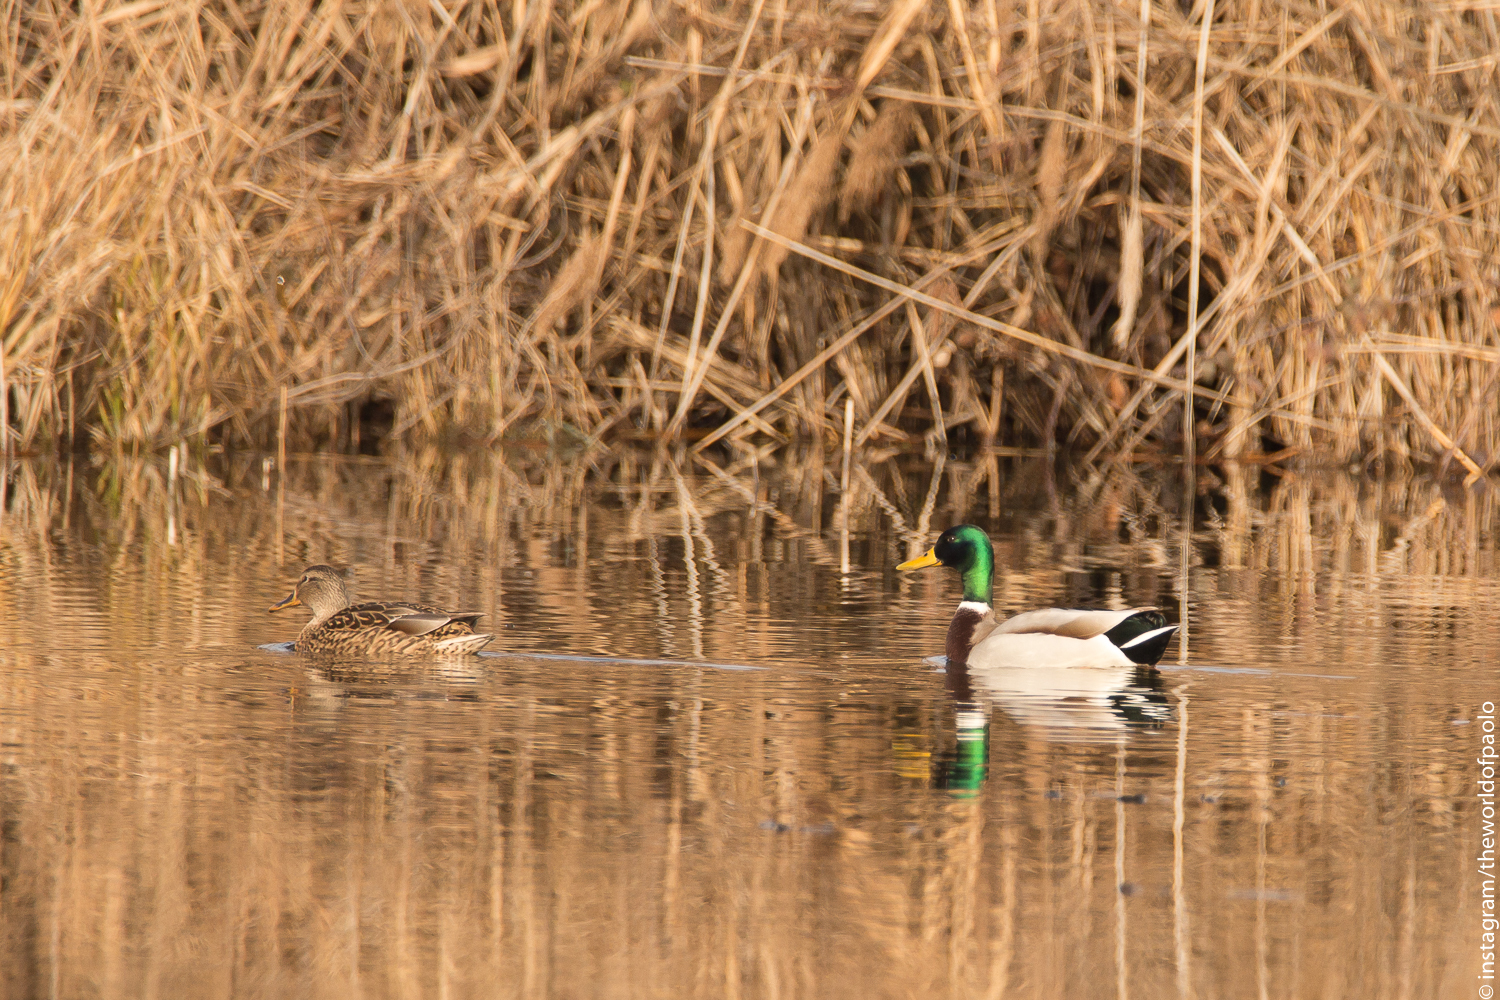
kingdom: Animalia
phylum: Chordata
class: Aves
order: Anseriformes
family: Anatidae
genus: Anas
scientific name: Anas platyrhynchos
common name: Mallard
